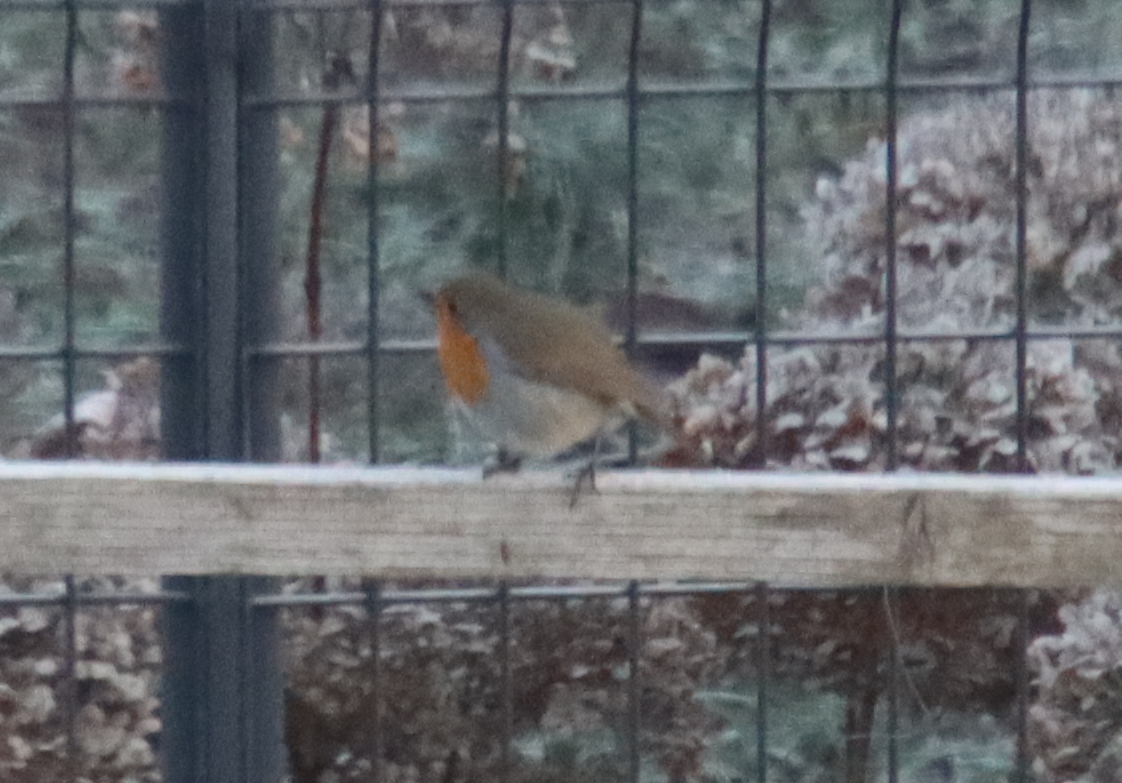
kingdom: Animalia
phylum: Chordata
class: Aves
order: Passeriformes
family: Muscicapidae
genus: Erithacus
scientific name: Erithacus rubecula
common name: European robin
